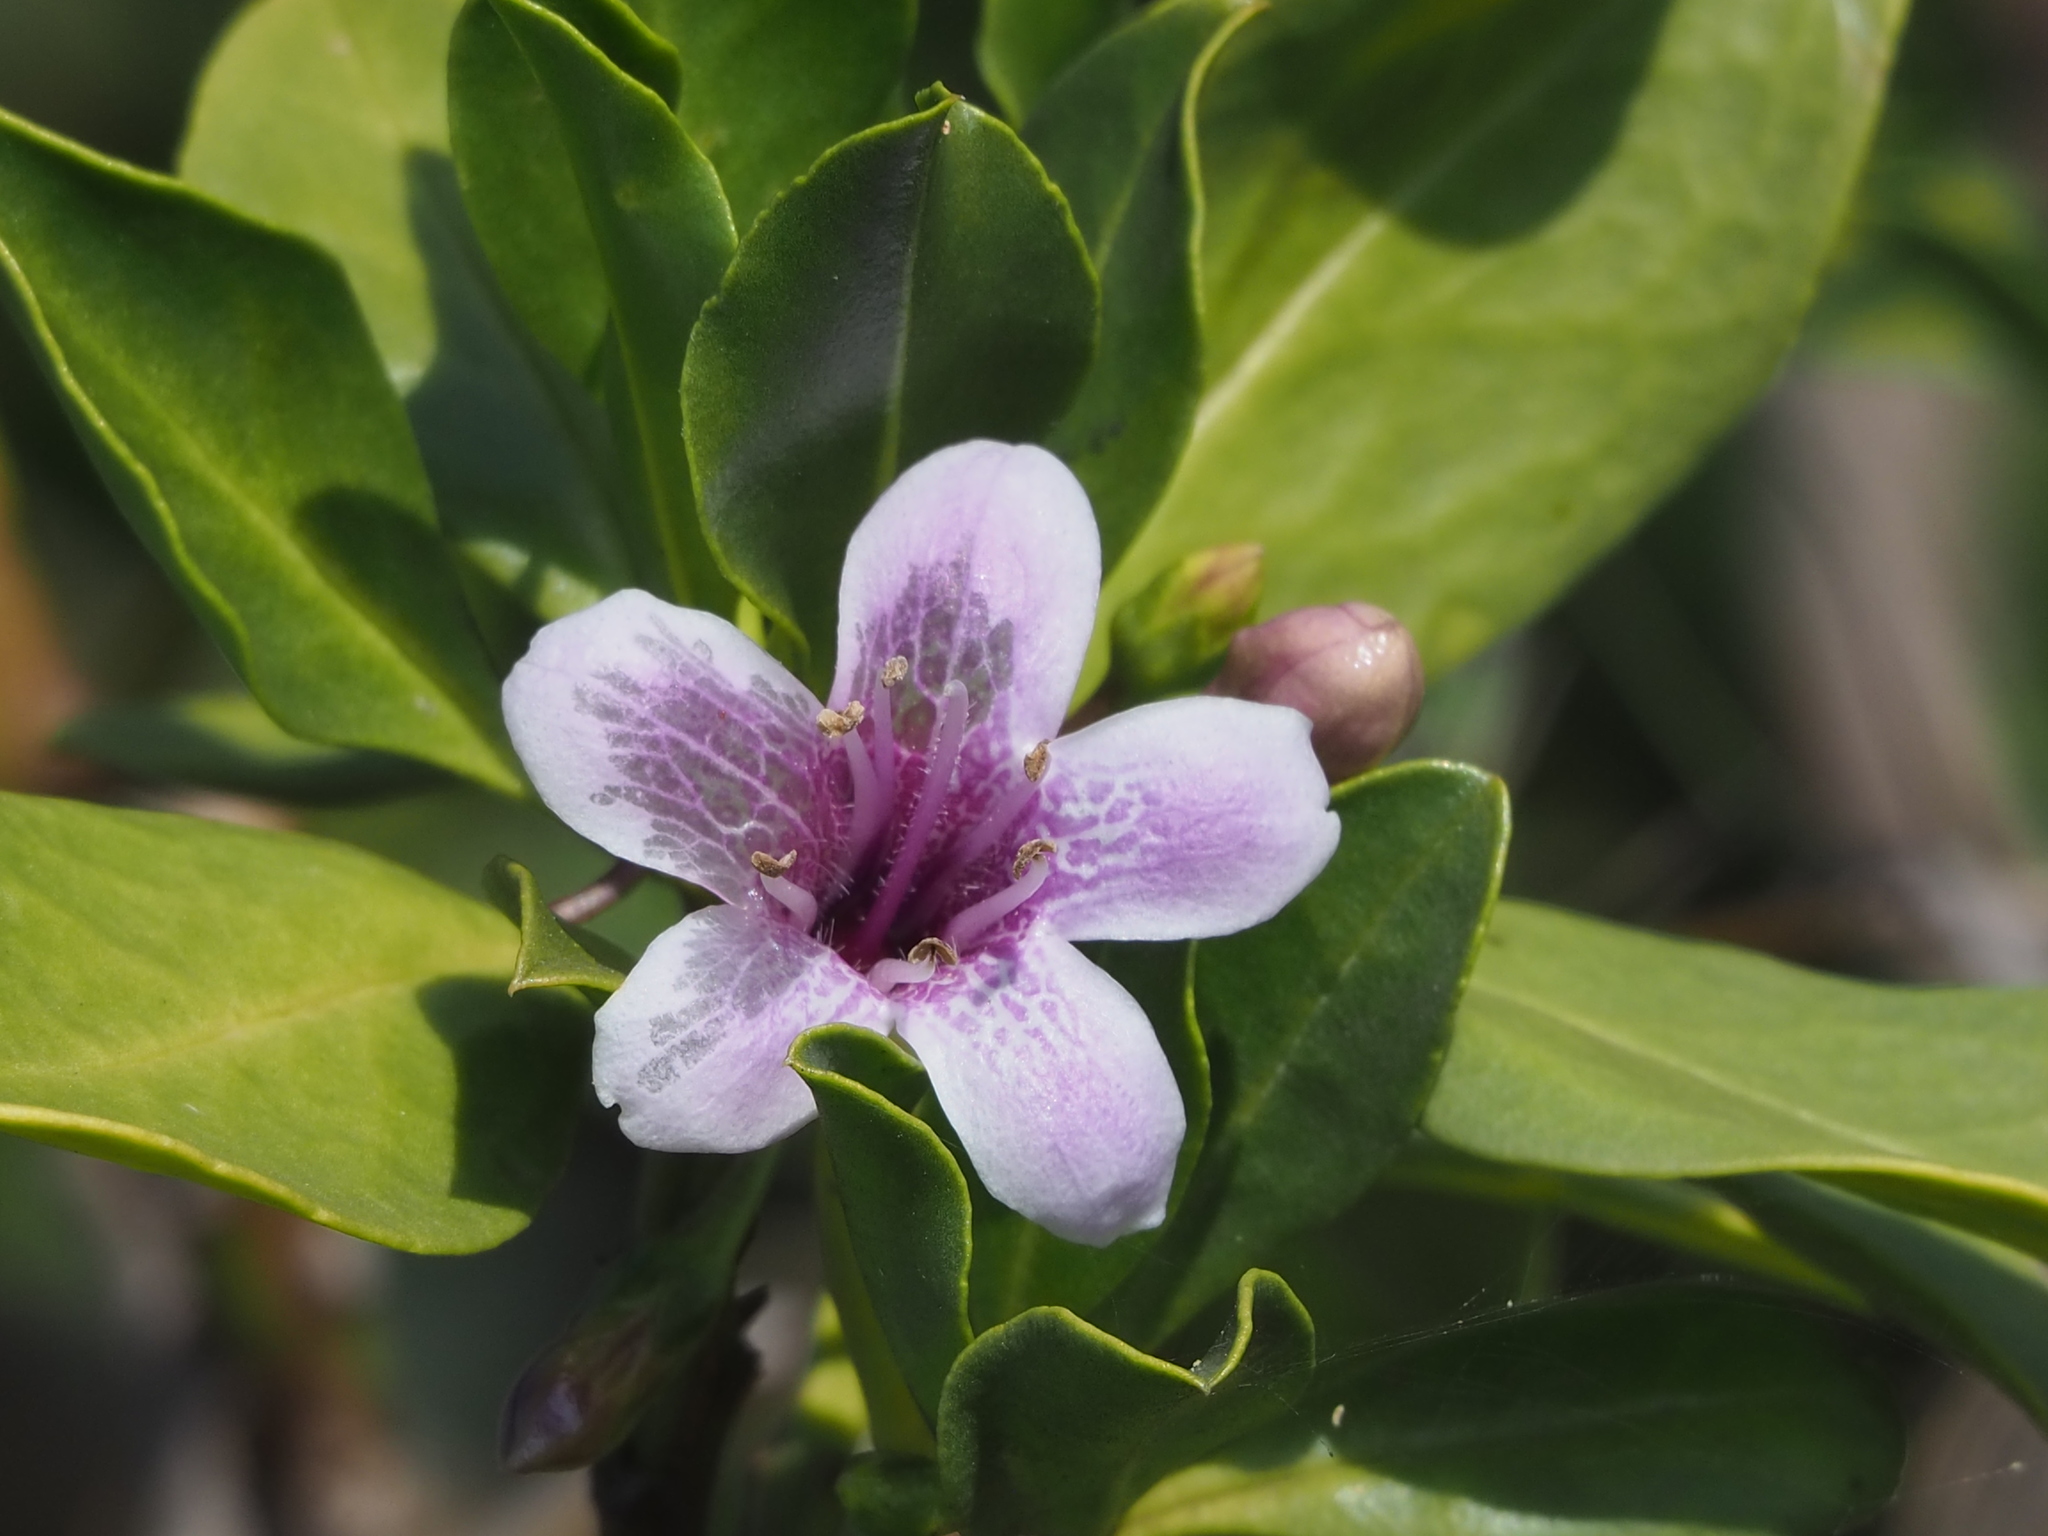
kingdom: Plantae
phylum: Tracheophyta
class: Magnoliopsida
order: Lamiales
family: Scrophulariaceae
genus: Myoporum
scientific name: Myoporum bontioides
